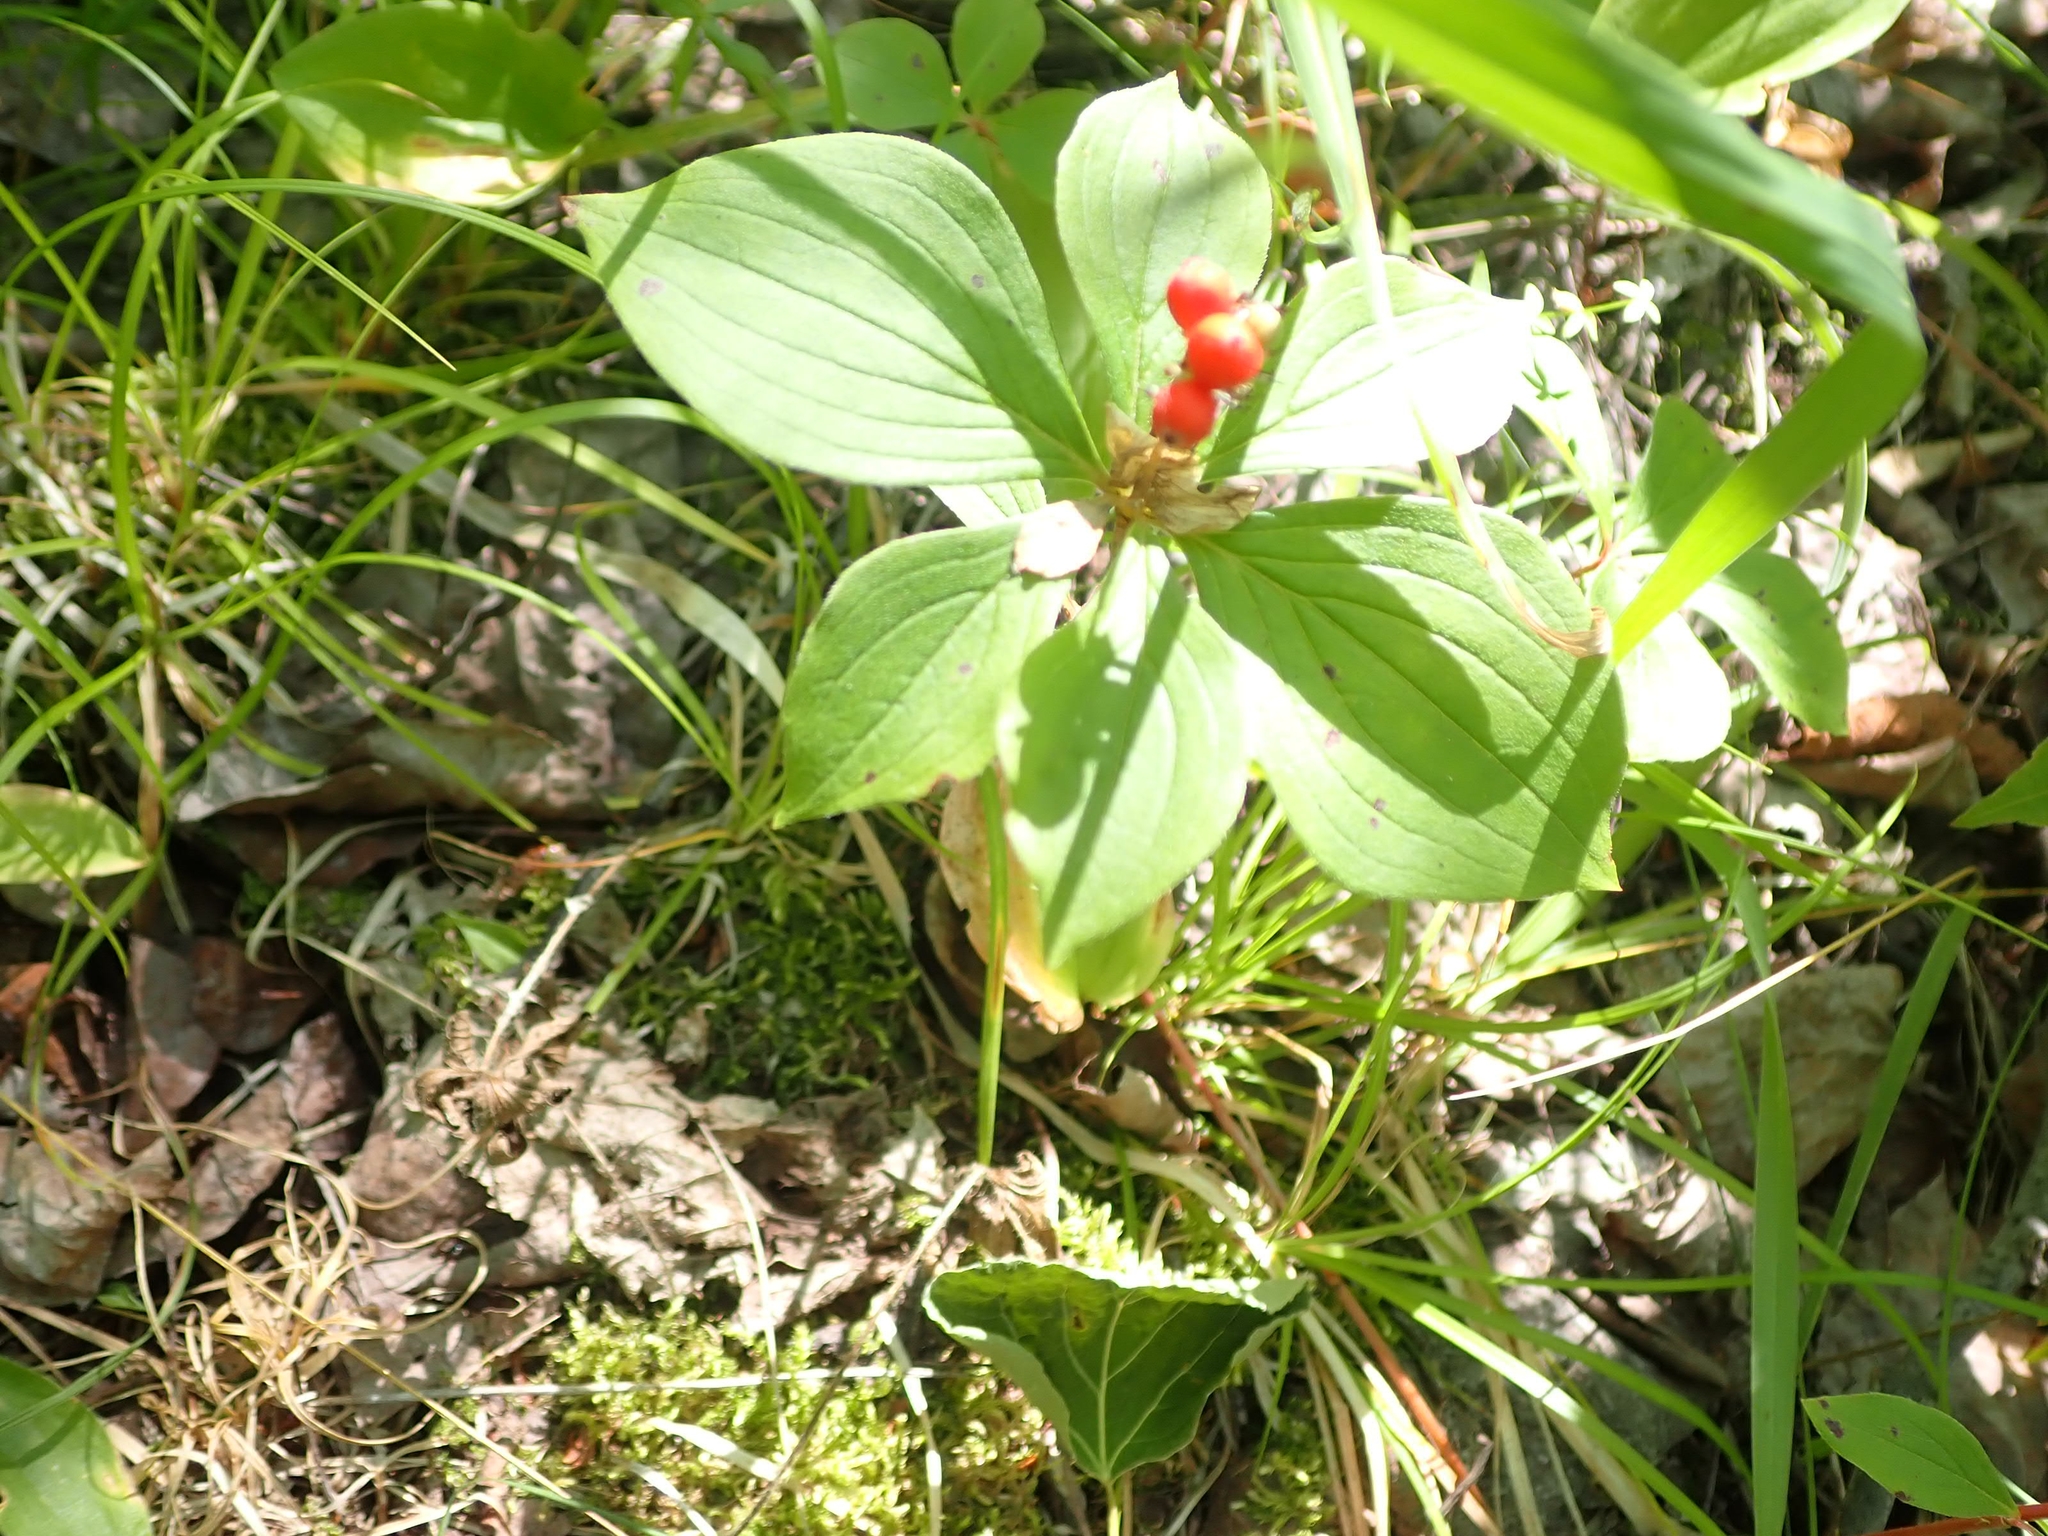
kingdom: Plantae
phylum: Tracheophyta
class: Magnoliopsida
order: Cornales
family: Cornaceae
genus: Cornus
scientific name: Cornus canadensis
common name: Creeping dogwood
